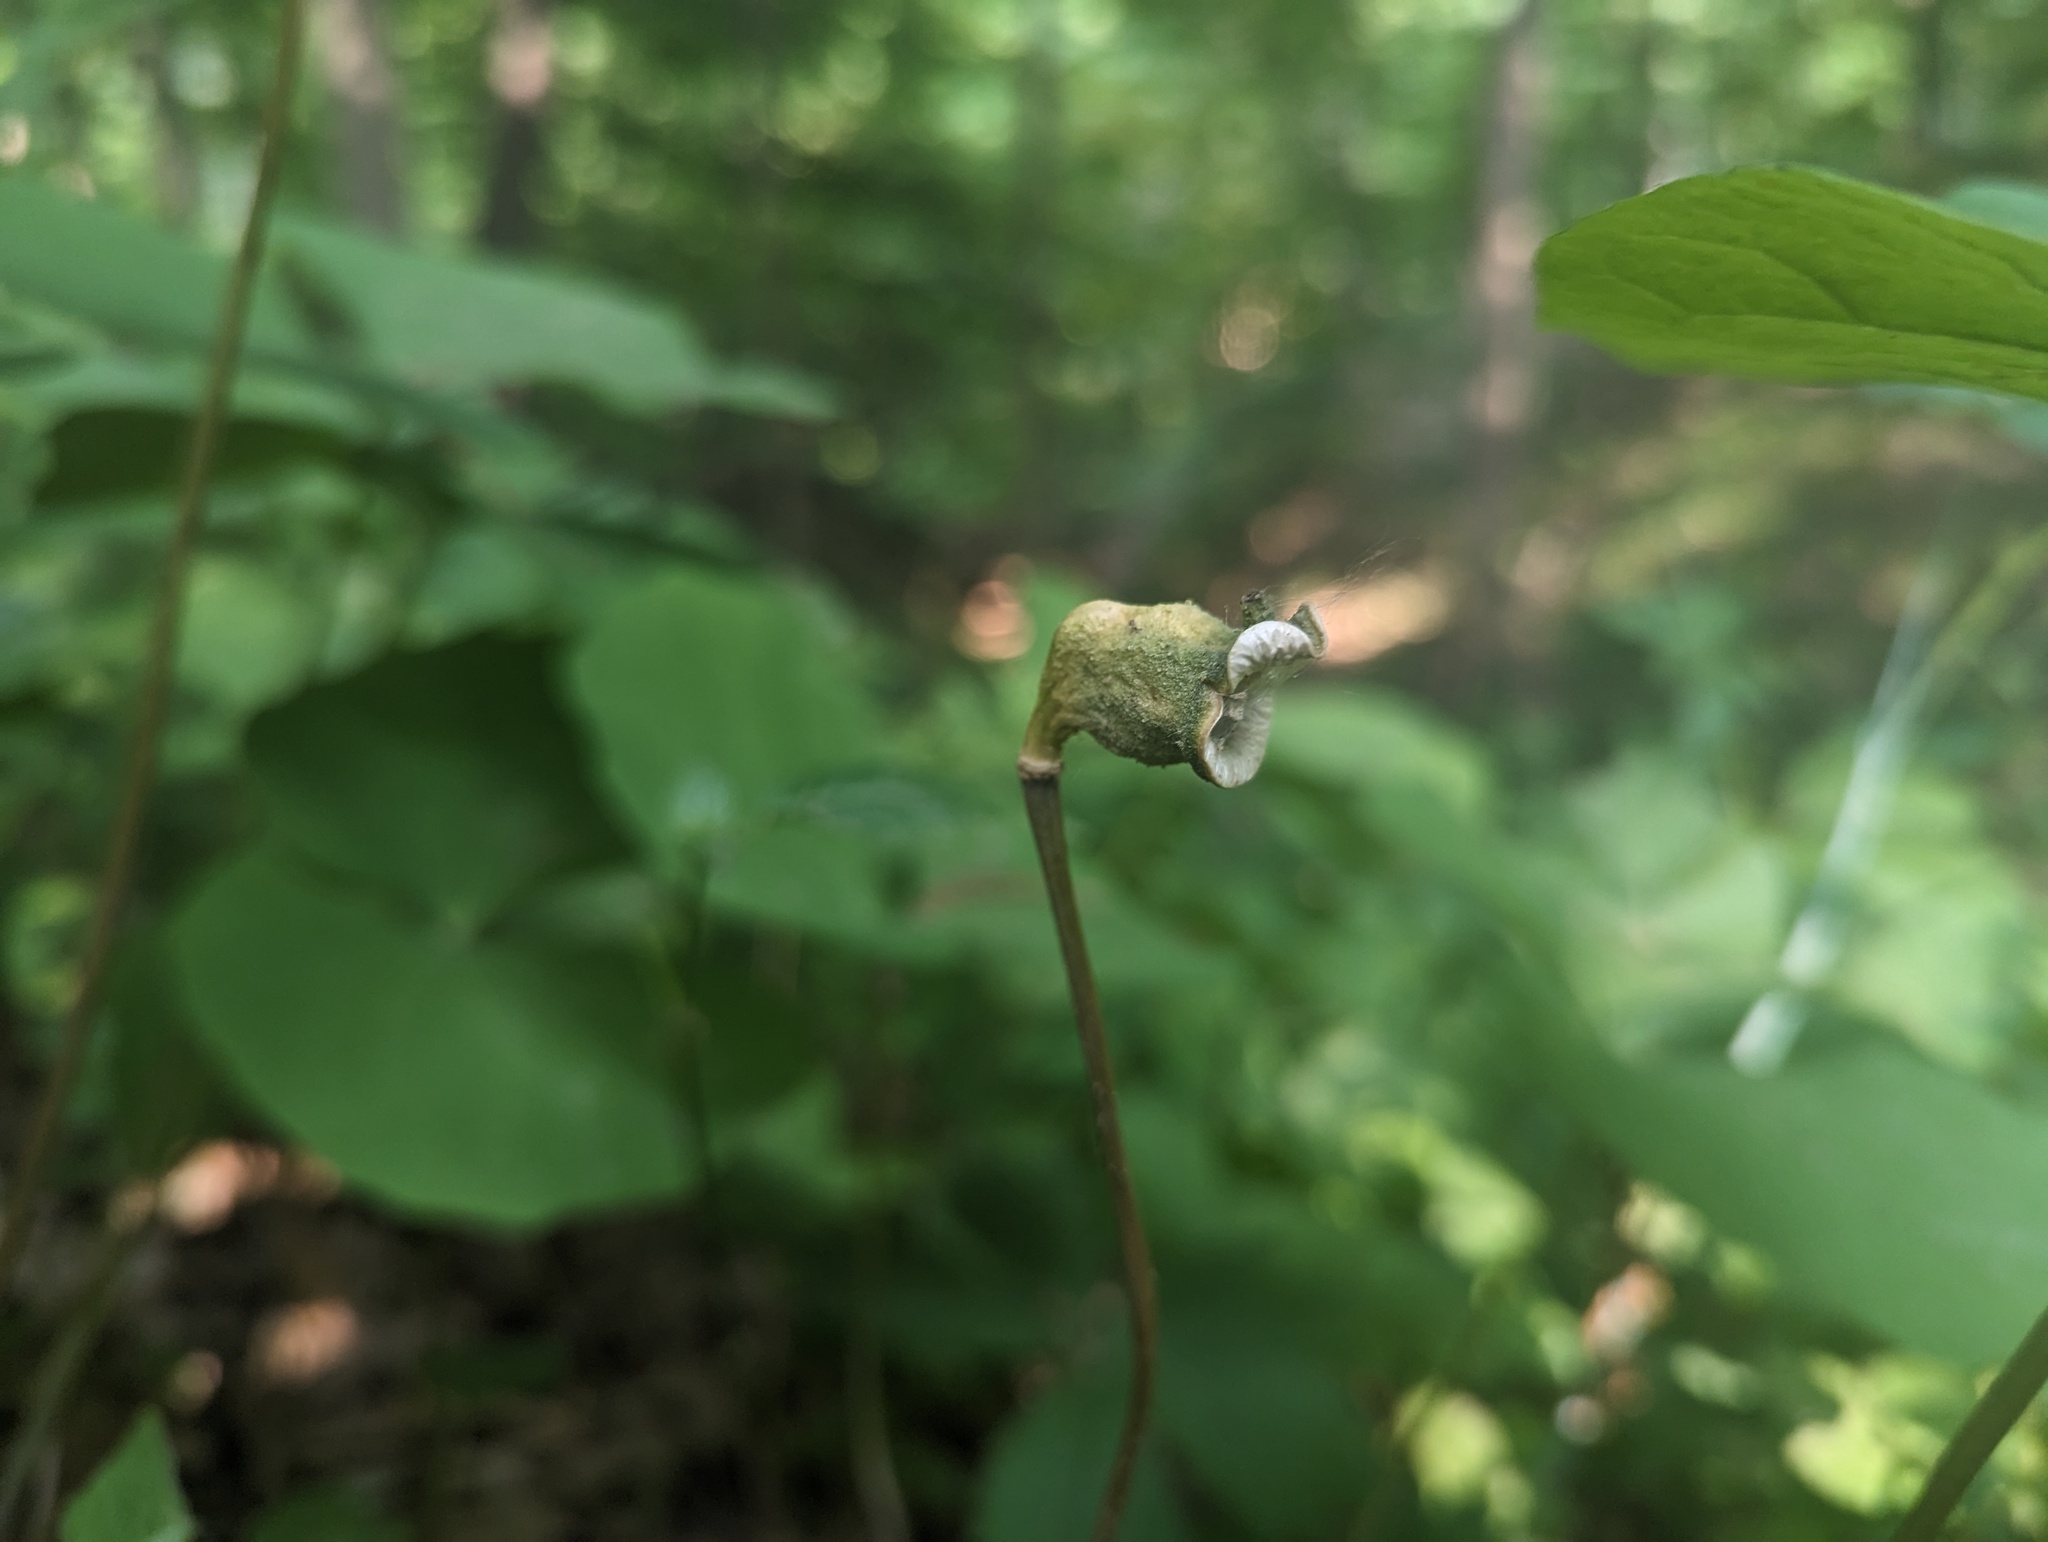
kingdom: Plantae
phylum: Tracheophyta
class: Magnoliopsida
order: Ranunculales
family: Berberidaceae
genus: Jeffersonia
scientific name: Jeffersonia diphylla
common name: Rheumatism-root
